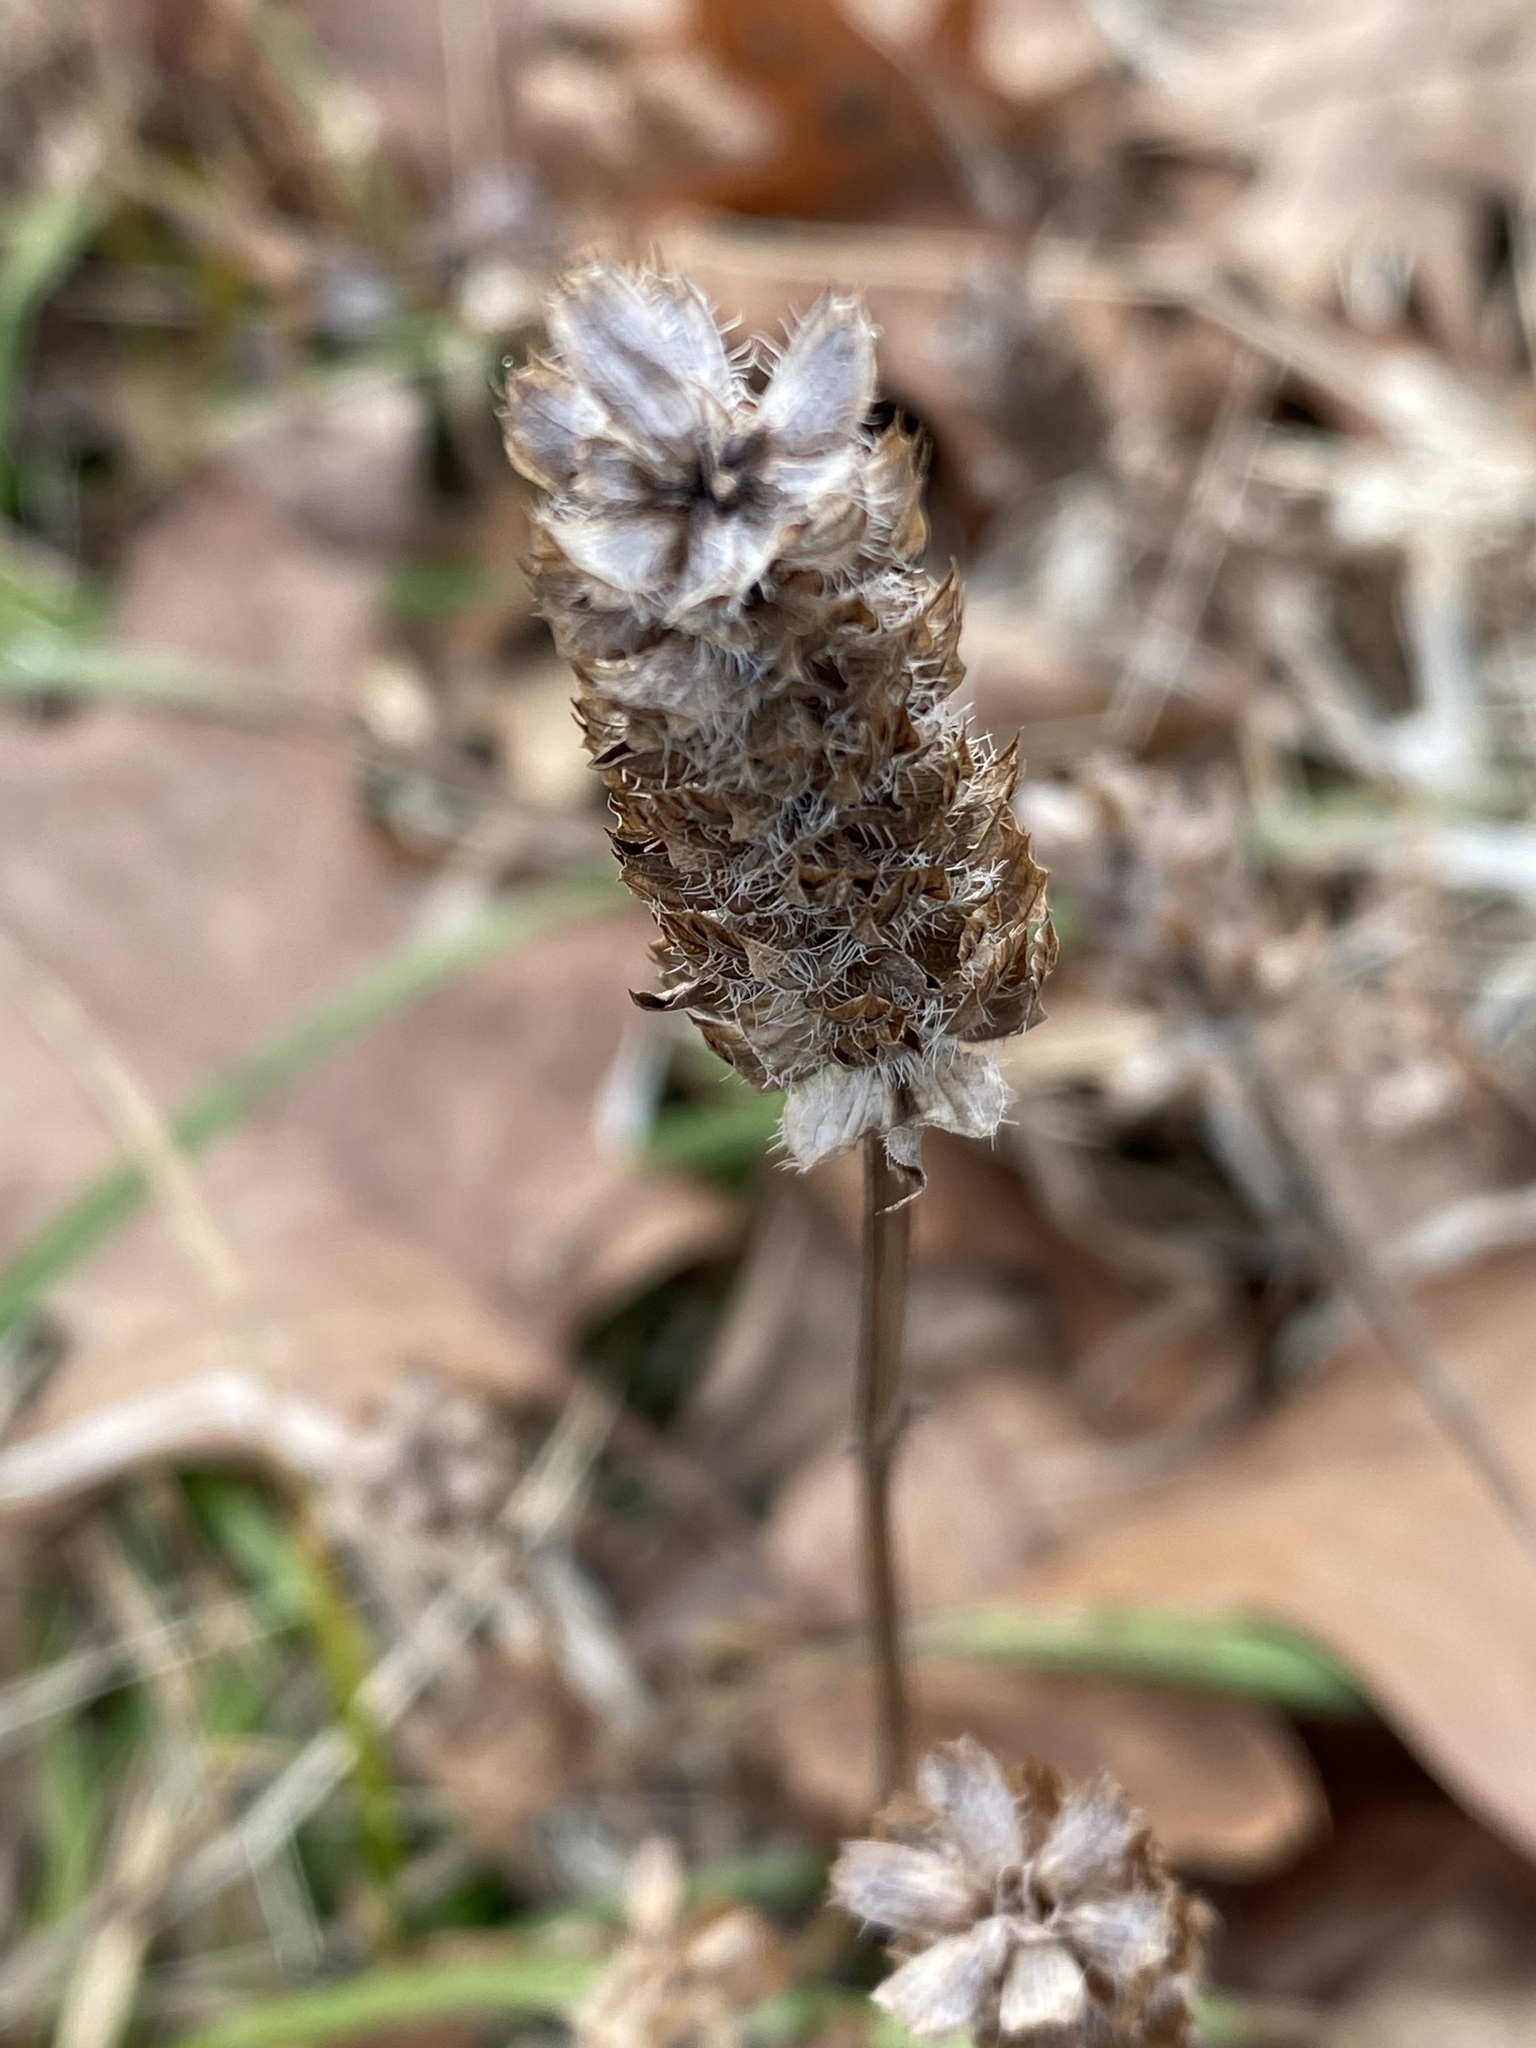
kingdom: Plantae
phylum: Tracheophyta
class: Magnoliopsida
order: Lamiales
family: Lamiaceae
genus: Prunella
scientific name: Prunella vulgaris
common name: Heal-all
